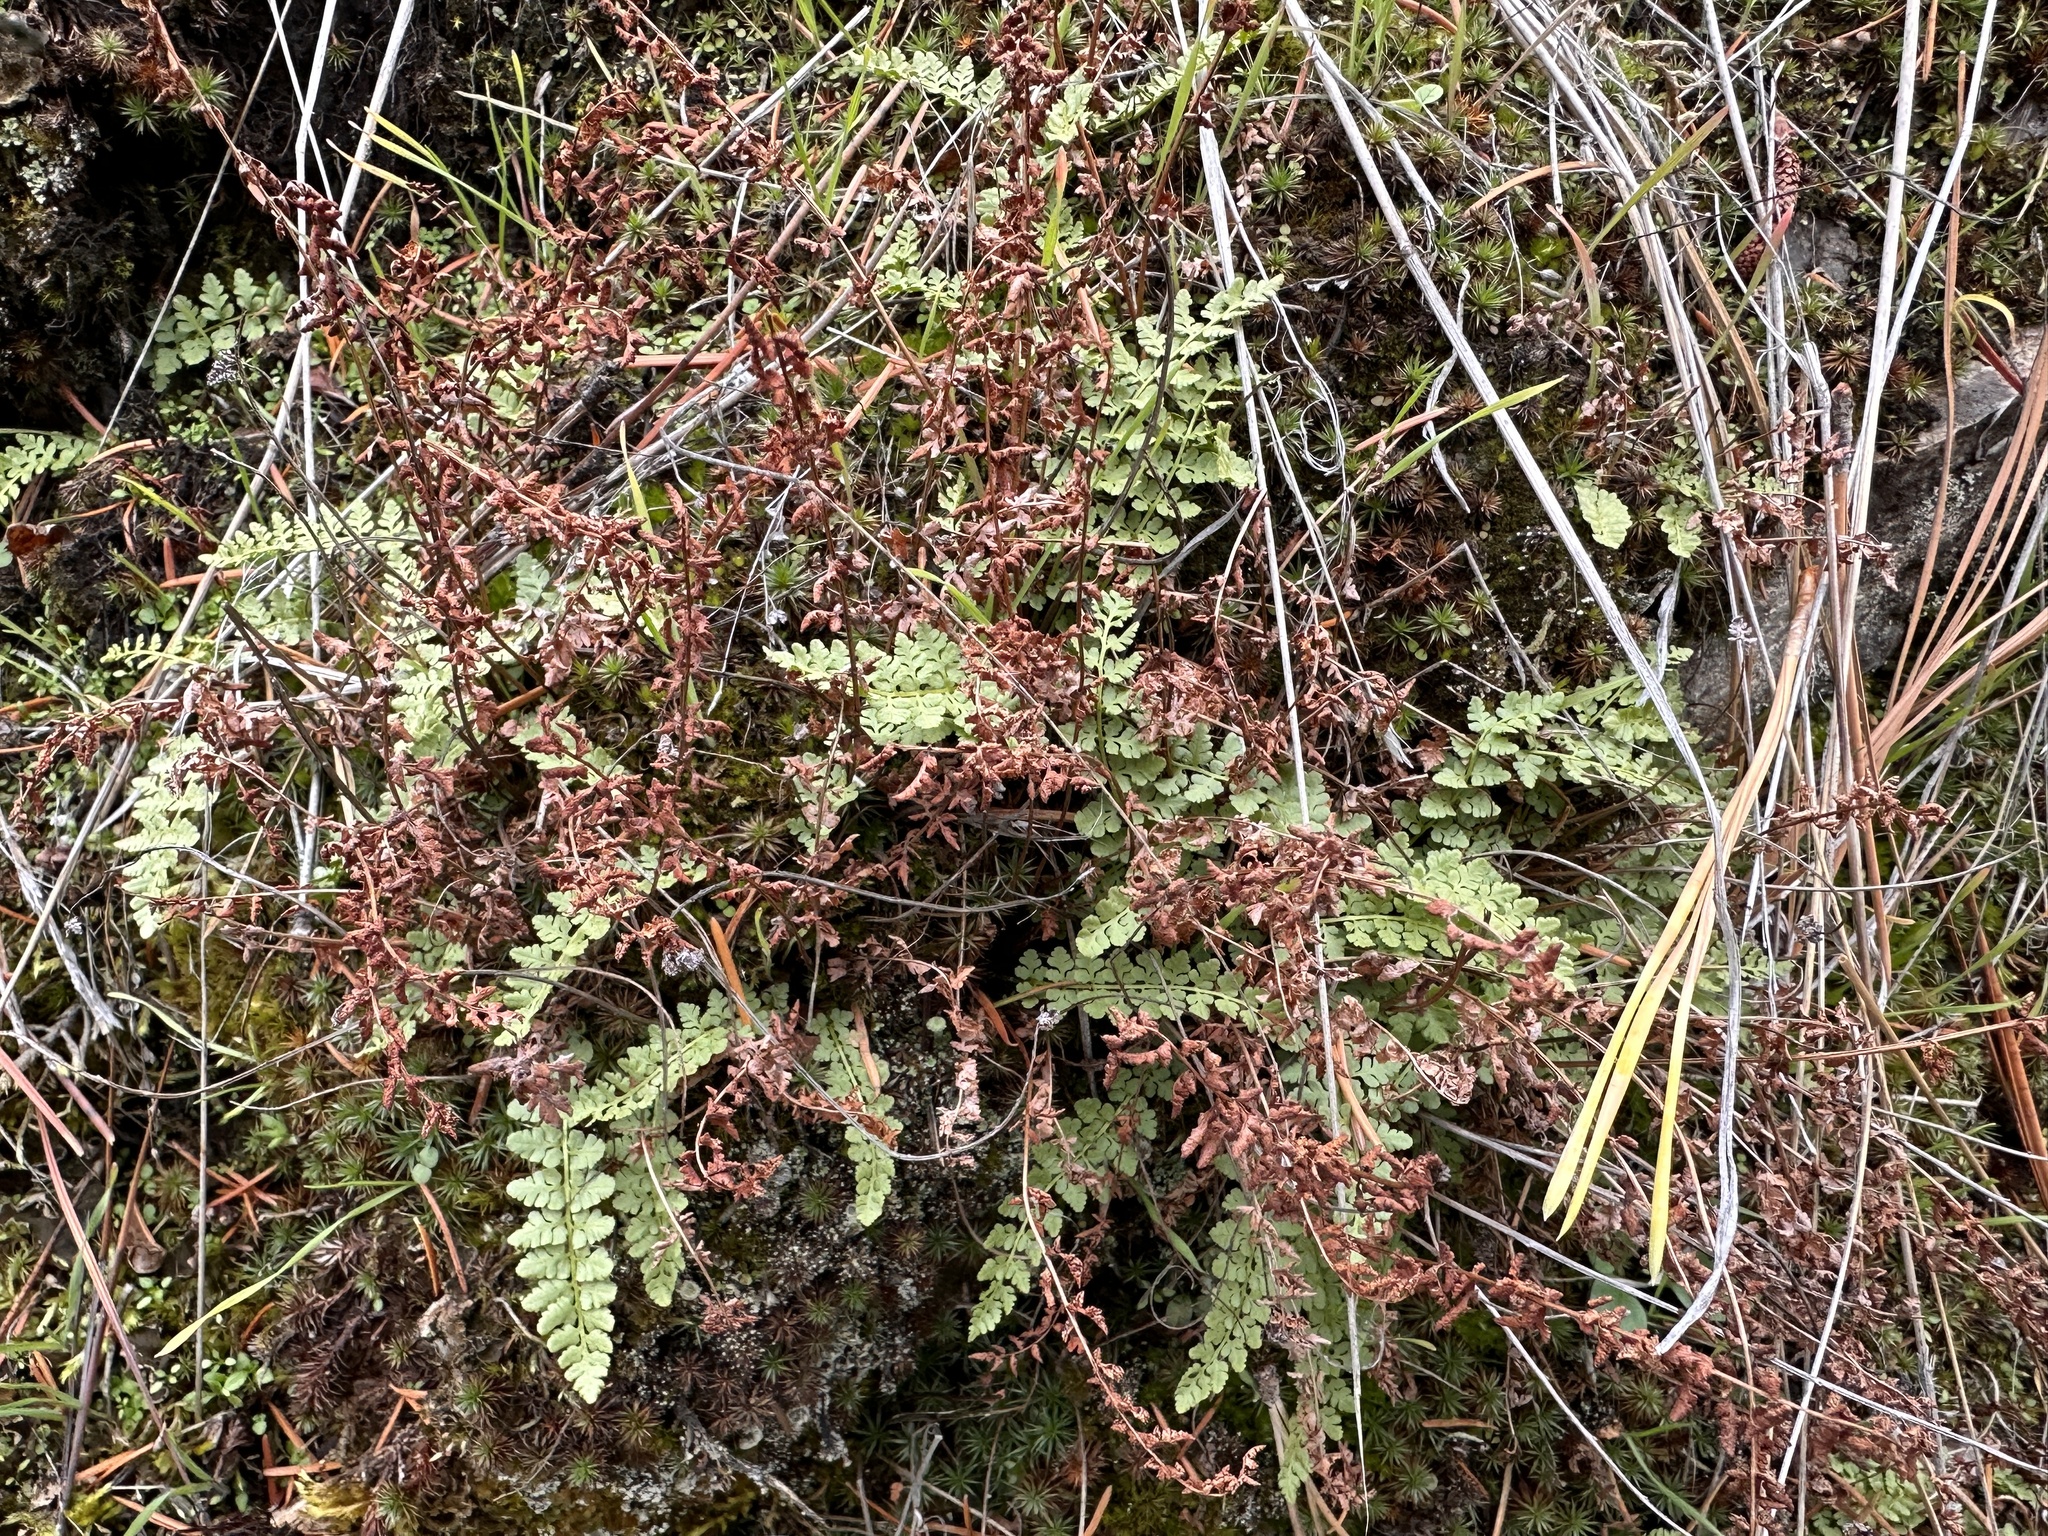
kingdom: Plantae
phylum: Tracheophyta
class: Polypodiopsida
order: Polypodiales
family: Woodsiaceae
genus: Physematium
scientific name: Physematium oreganum
